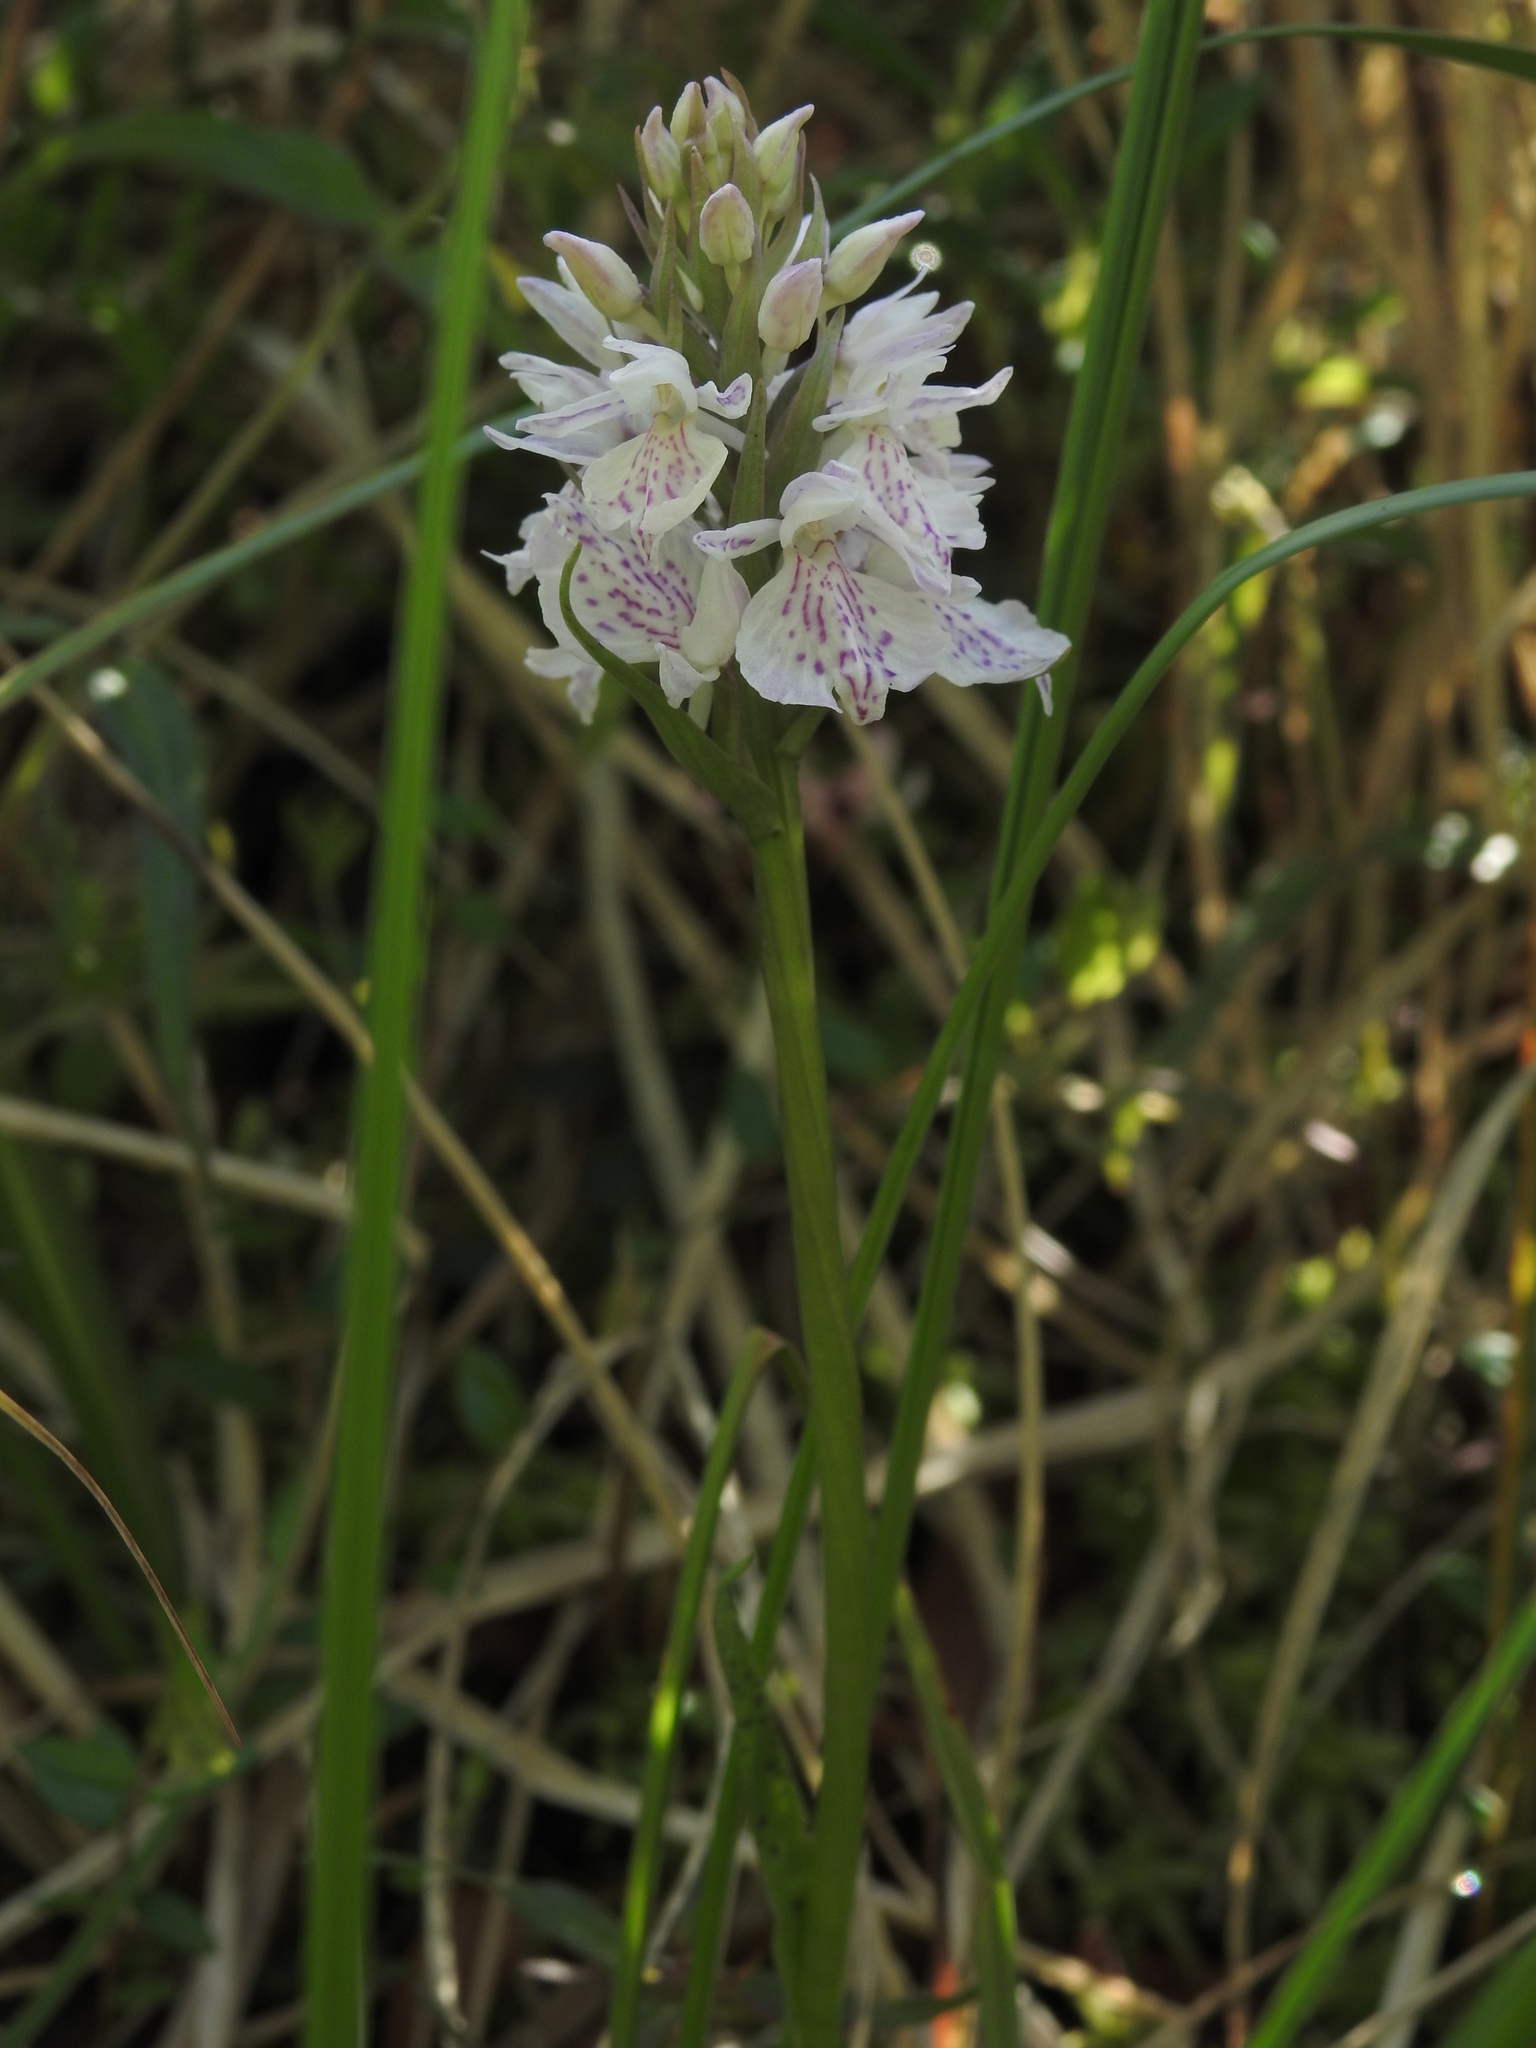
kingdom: Plantae
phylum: Tracheophyta
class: Liliopsida
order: Asparagales
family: Orchidaceae
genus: Dactylorhiza
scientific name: Dactylorhiza maculata
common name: Heath spotted-orchid
